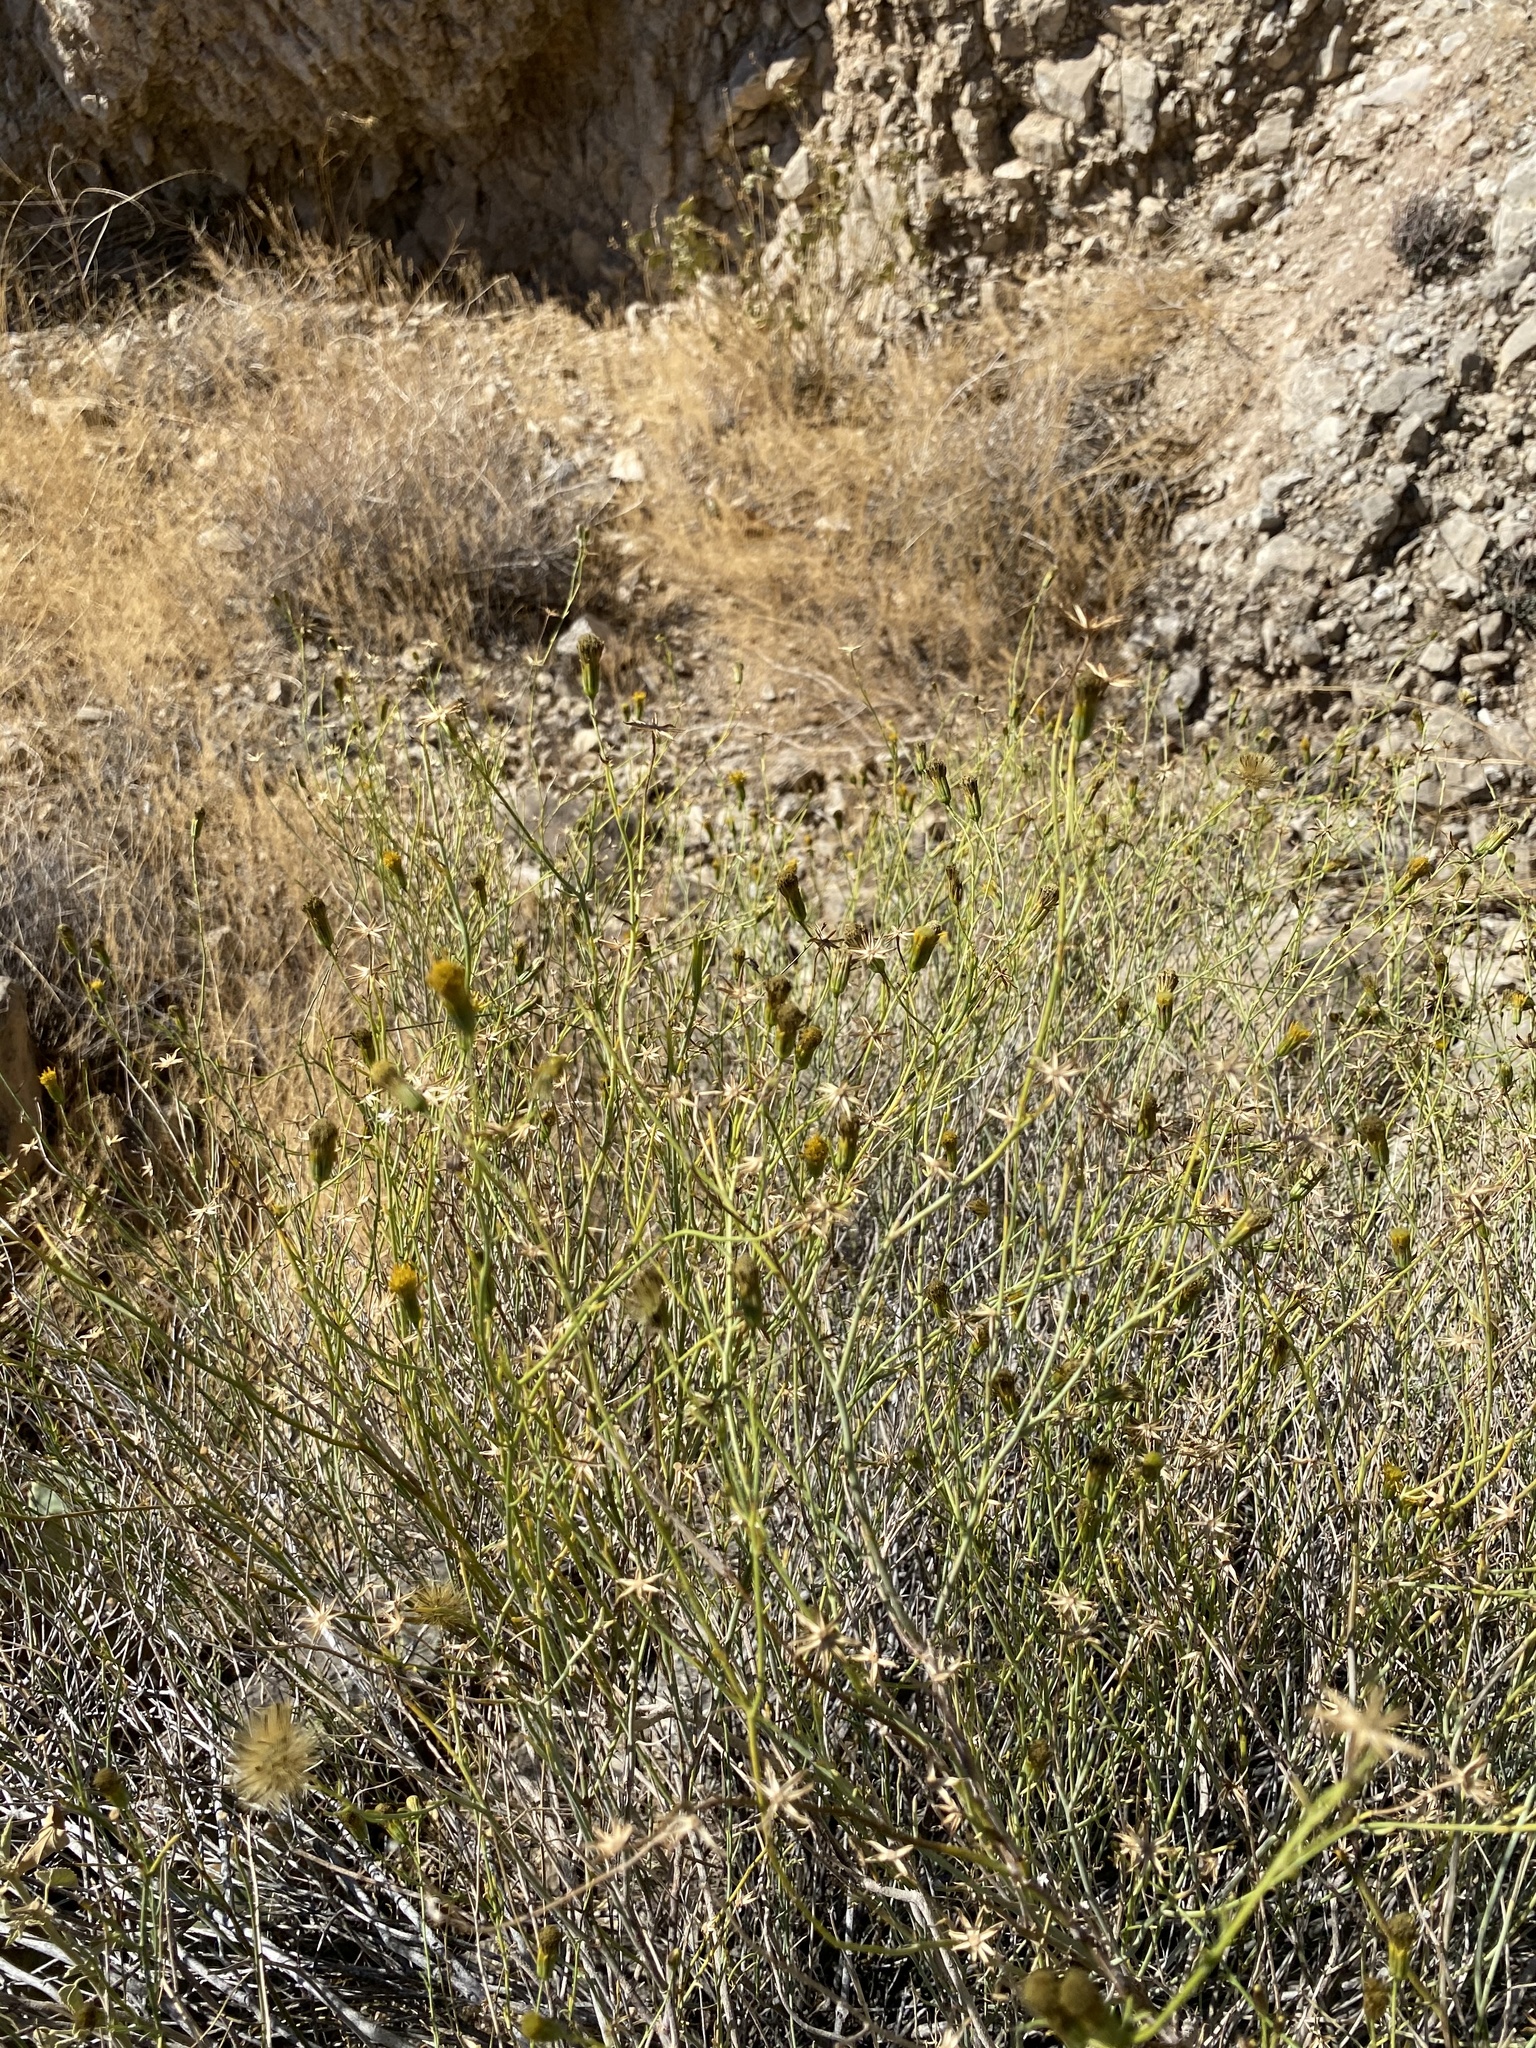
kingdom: Plantae
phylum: Tracheophyta
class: Magnoliopsida
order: Asterales
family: Asteraceae
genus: Gutierrezia
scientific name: Gutierrezia sarothrae
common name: Broom snakeweed
